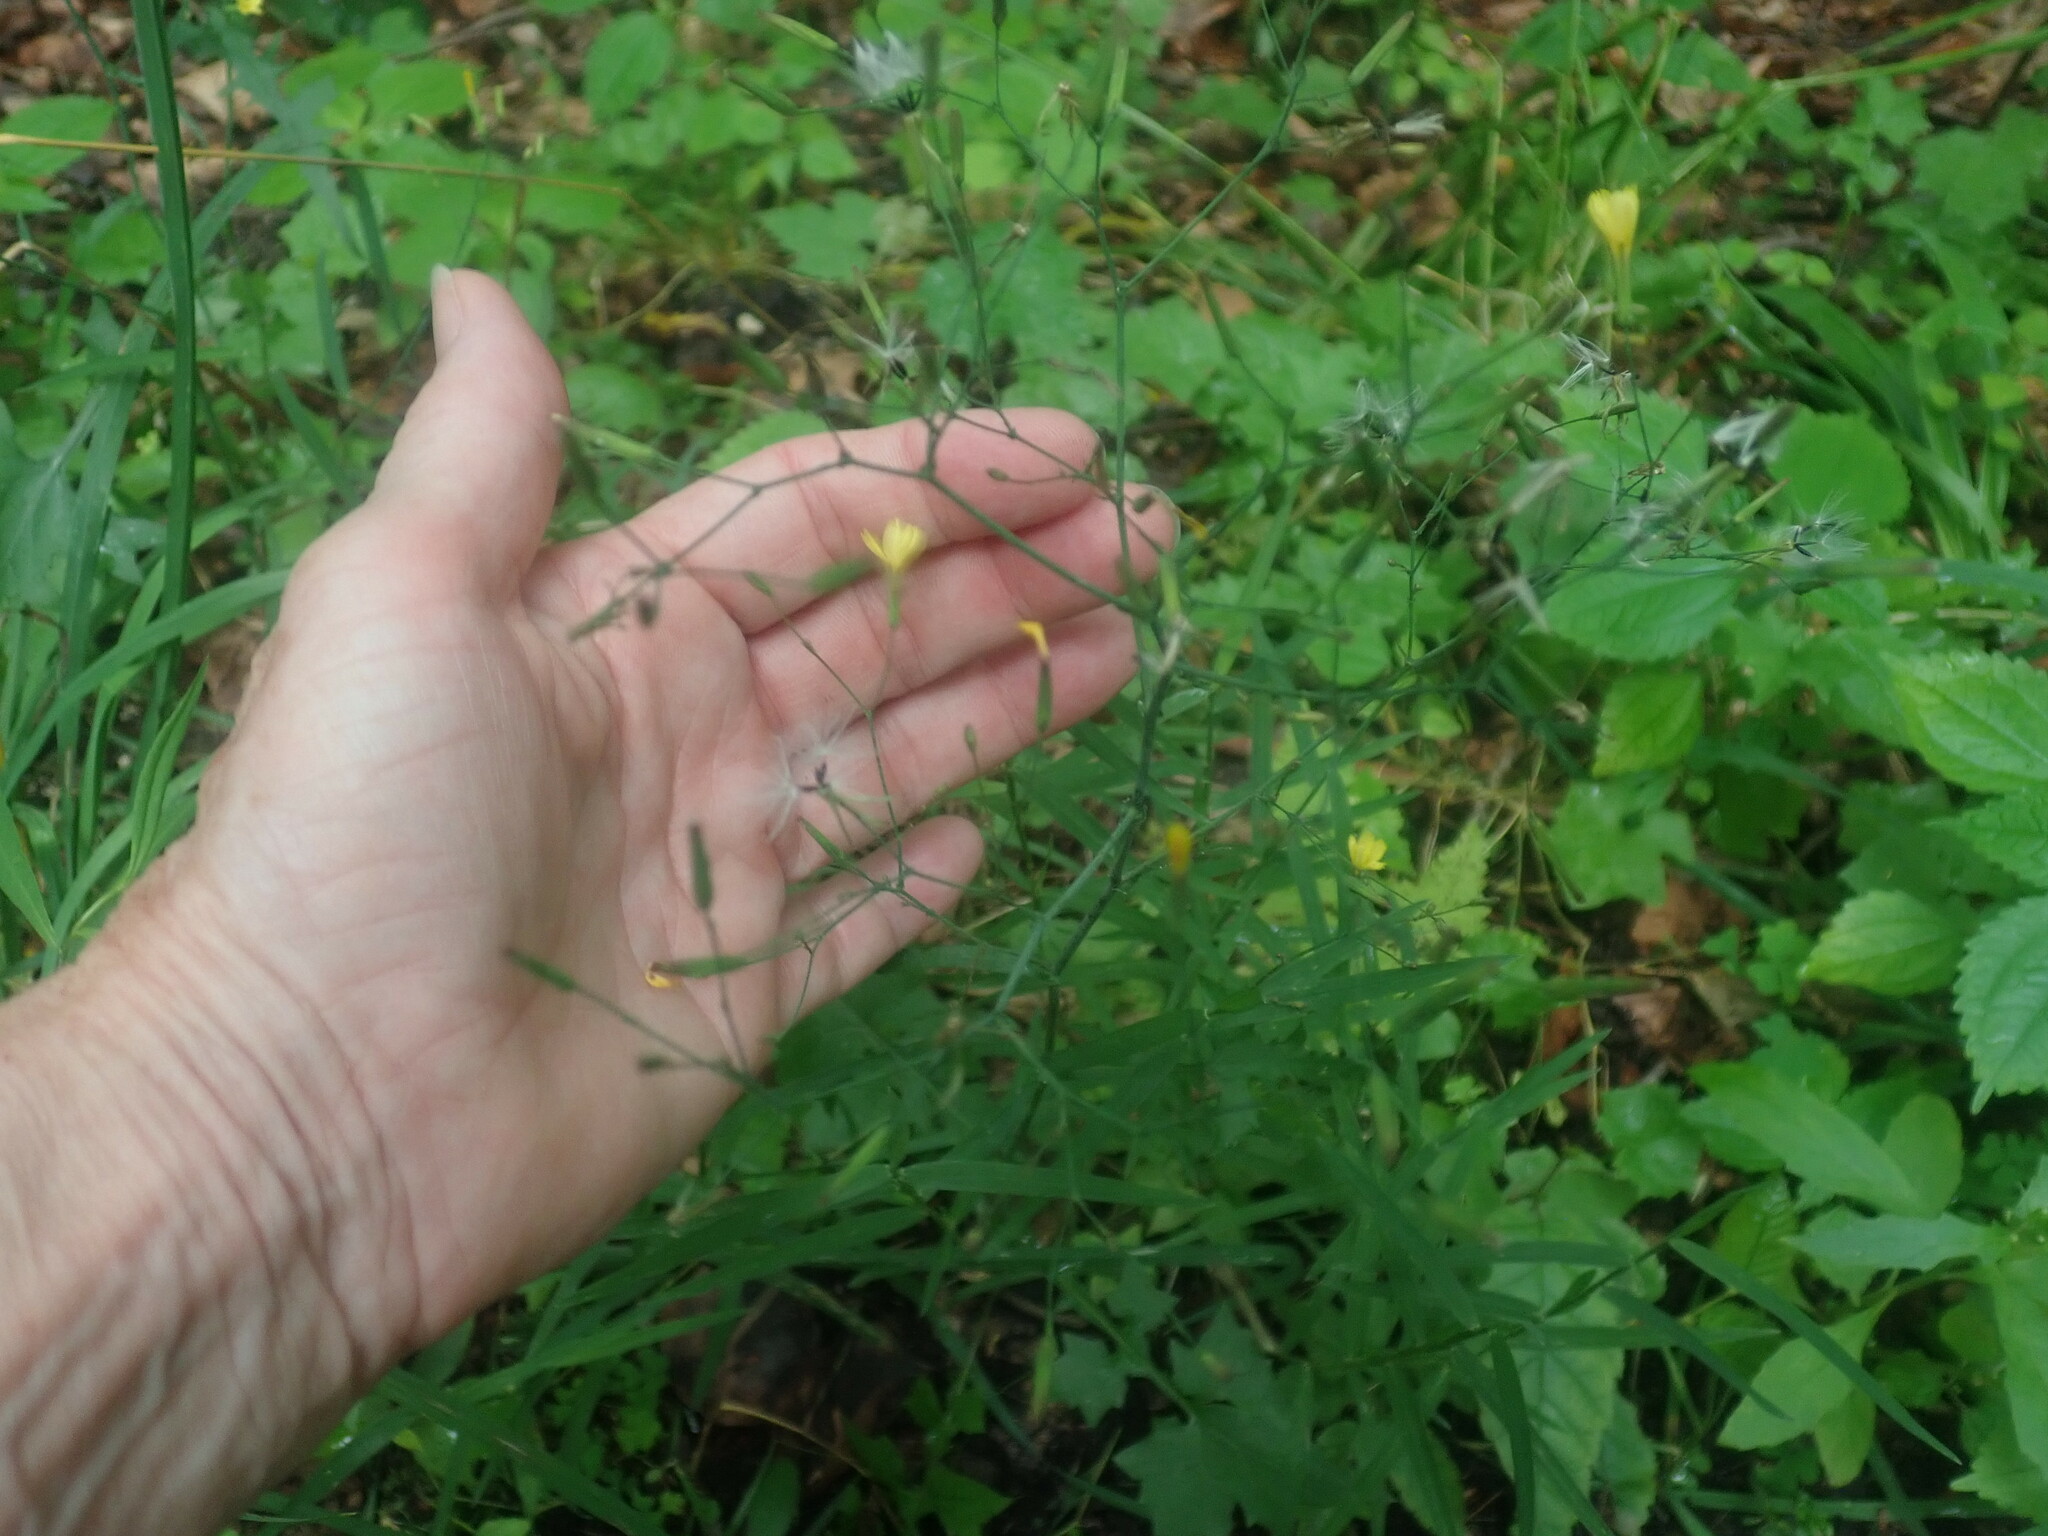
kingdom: Plantae
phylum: Tracheophyta
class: Magnoliopsida
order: Asterales
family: Asteraceae
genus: Mycelis
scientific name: Mycelis muralis
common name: Wall lettuce
